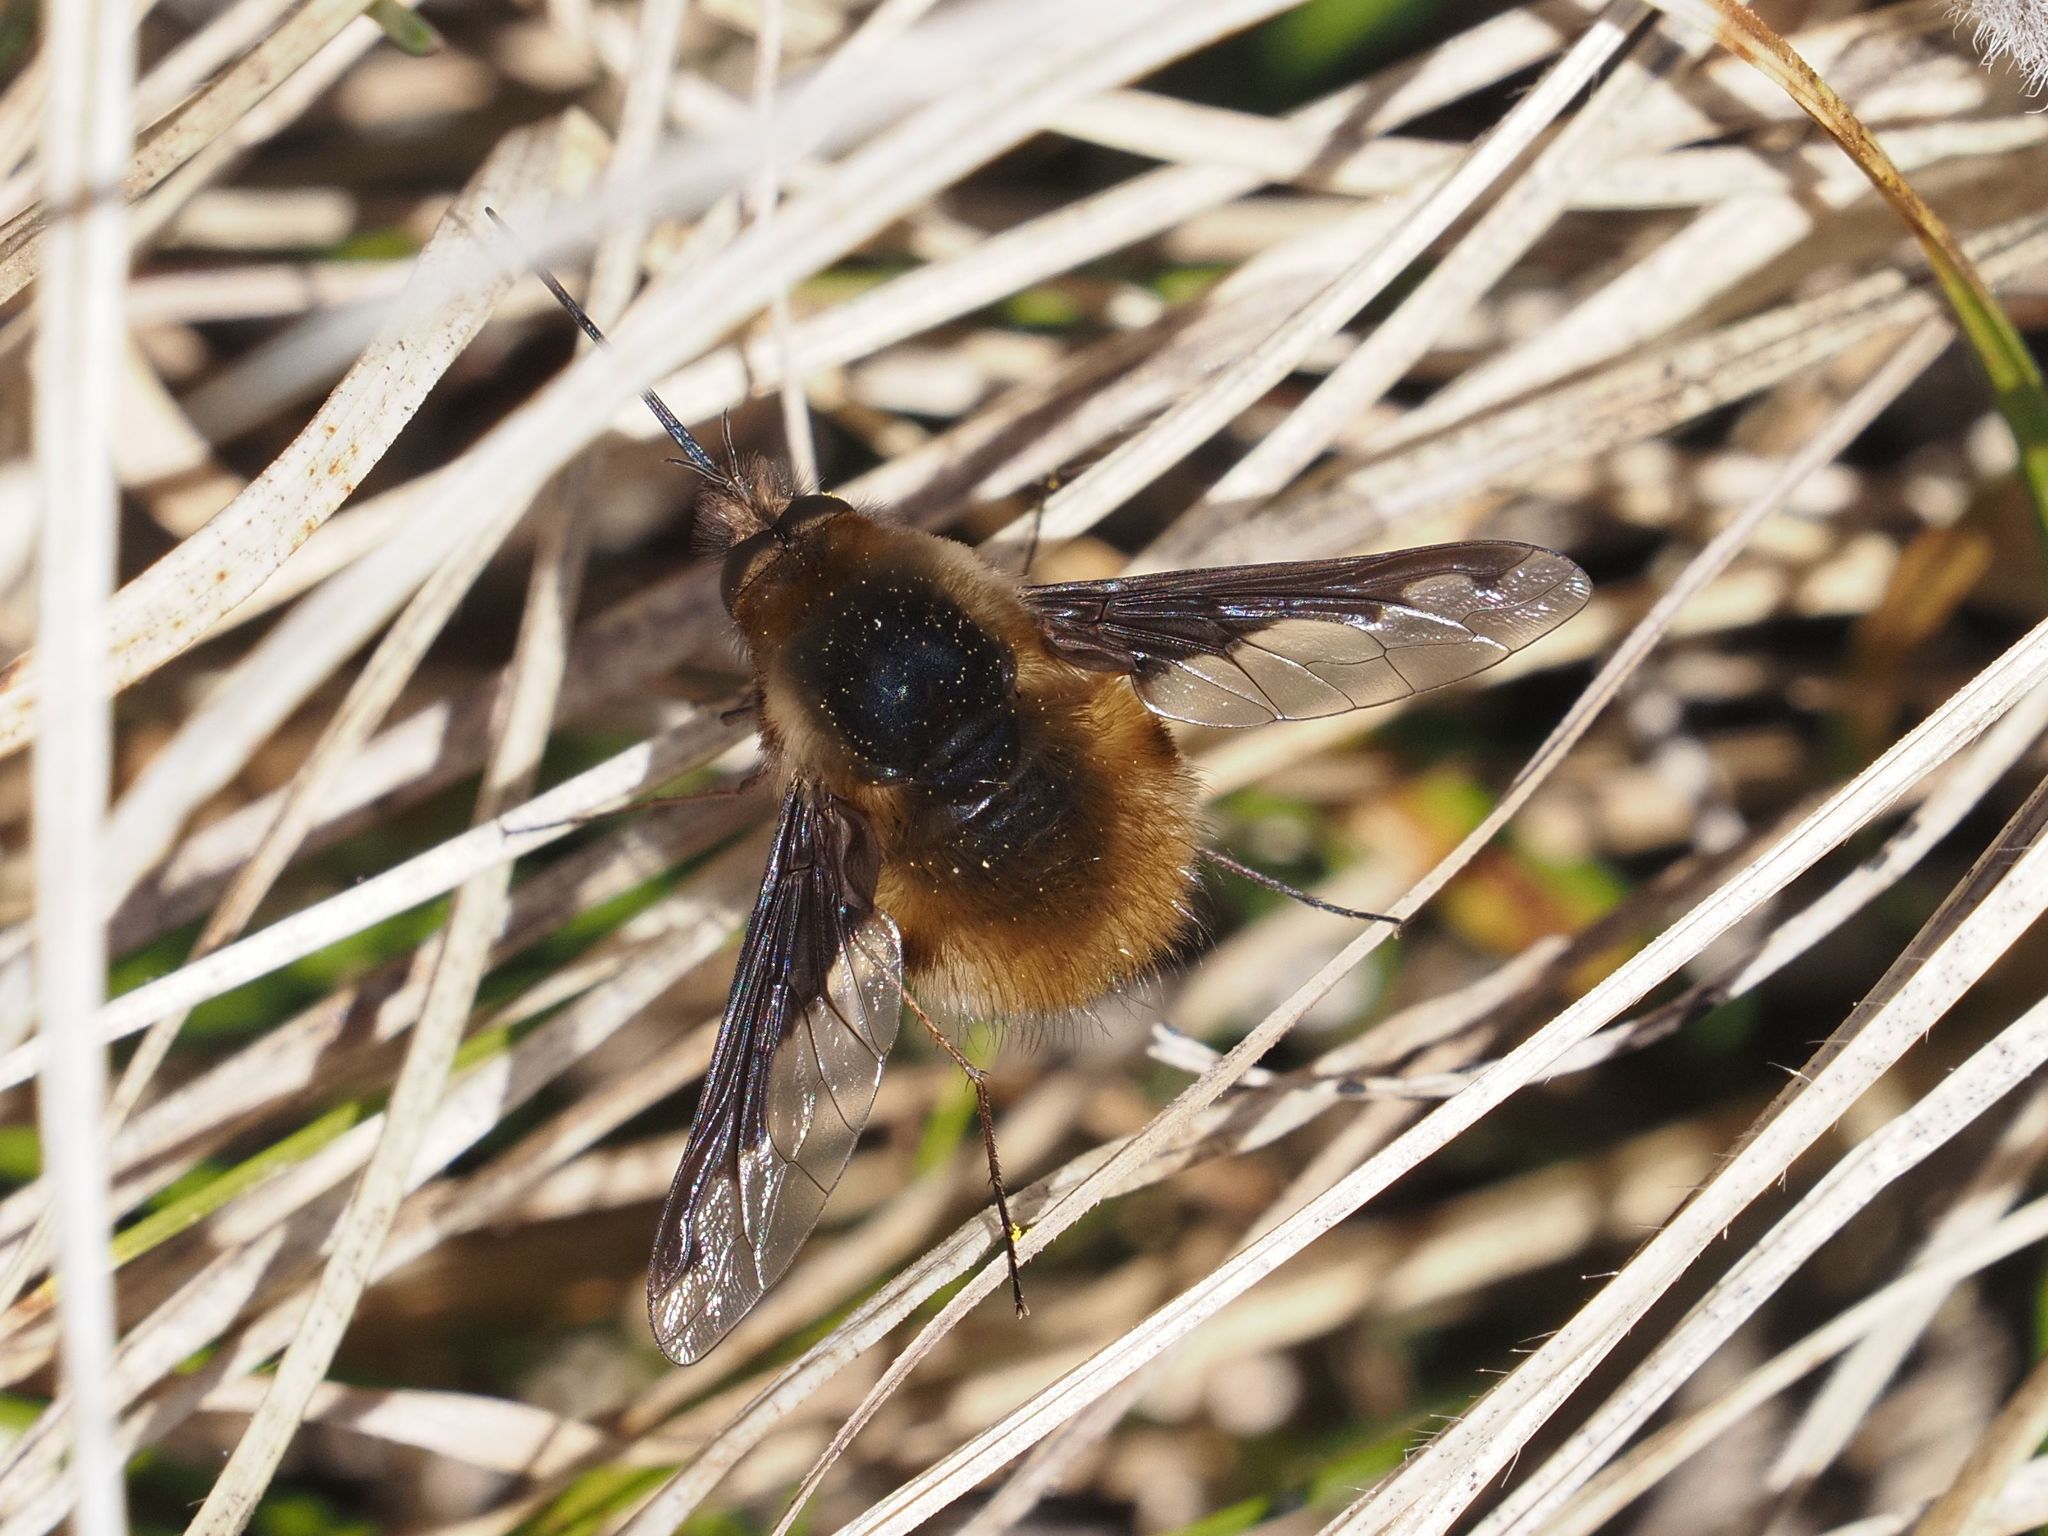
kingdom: Animalia
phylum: Arthropoda
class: Insecta
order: Diptera
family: Bombyliidae
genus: Bombylius
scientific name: Bombylius major
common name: Bee fly
